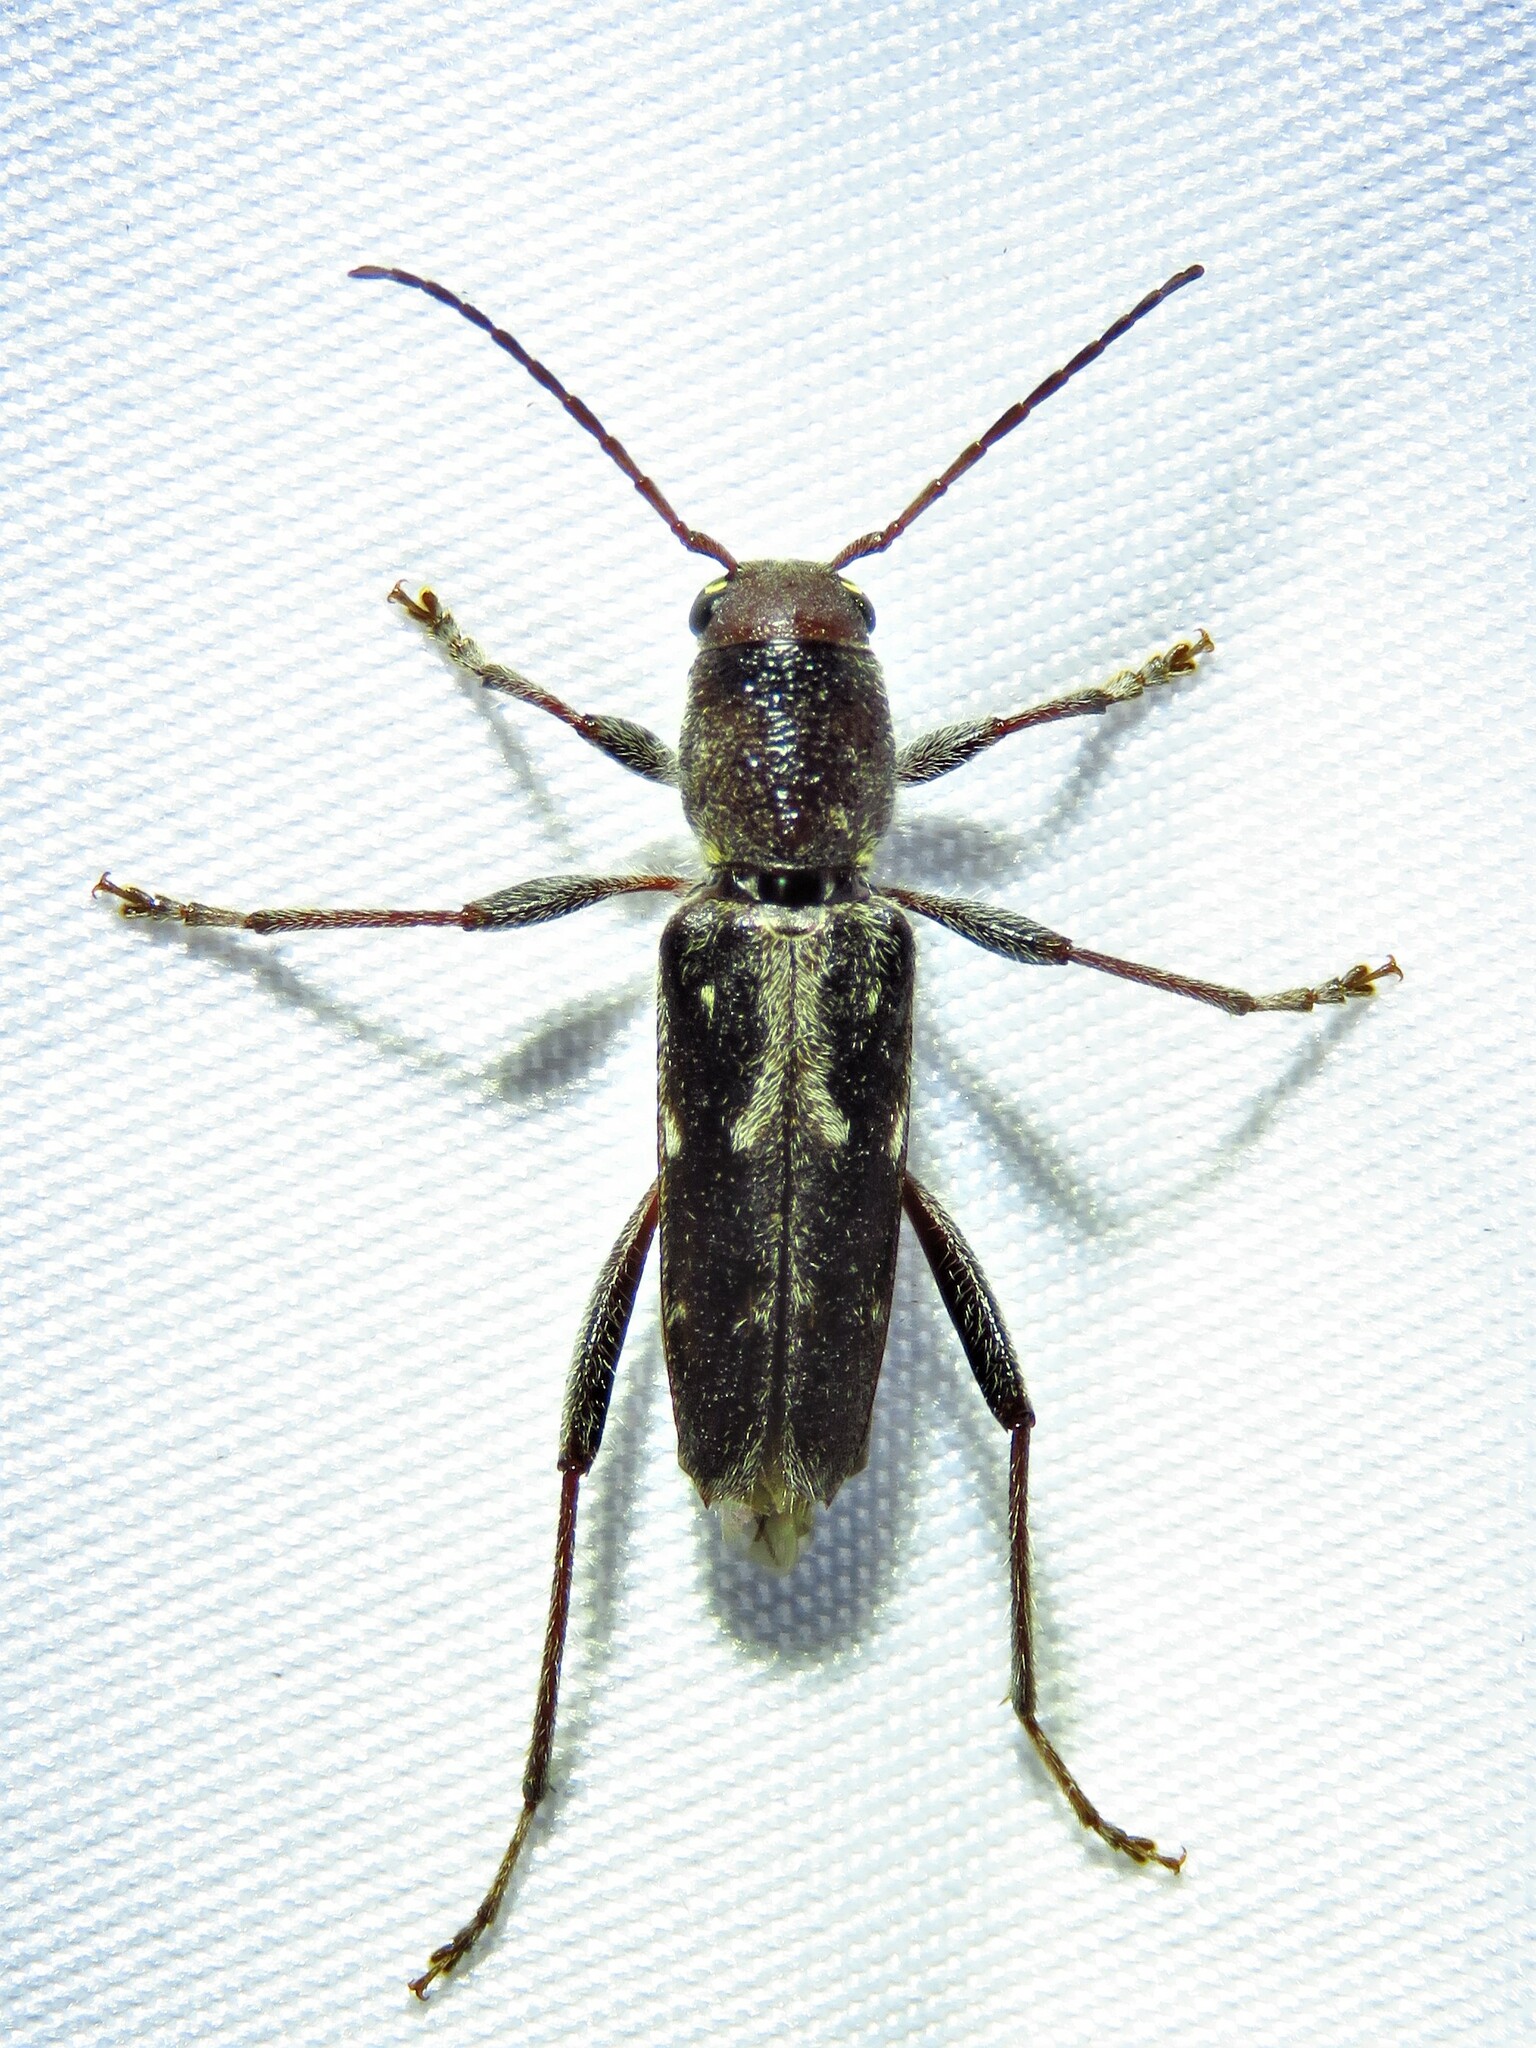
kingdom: Animalia
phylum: Arthropoda
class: Insecta
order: Coleoptera
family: Cerambycidae
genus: Xylotrechus
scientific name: Xylotrechus sagittatus
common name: Arrowhead borer
